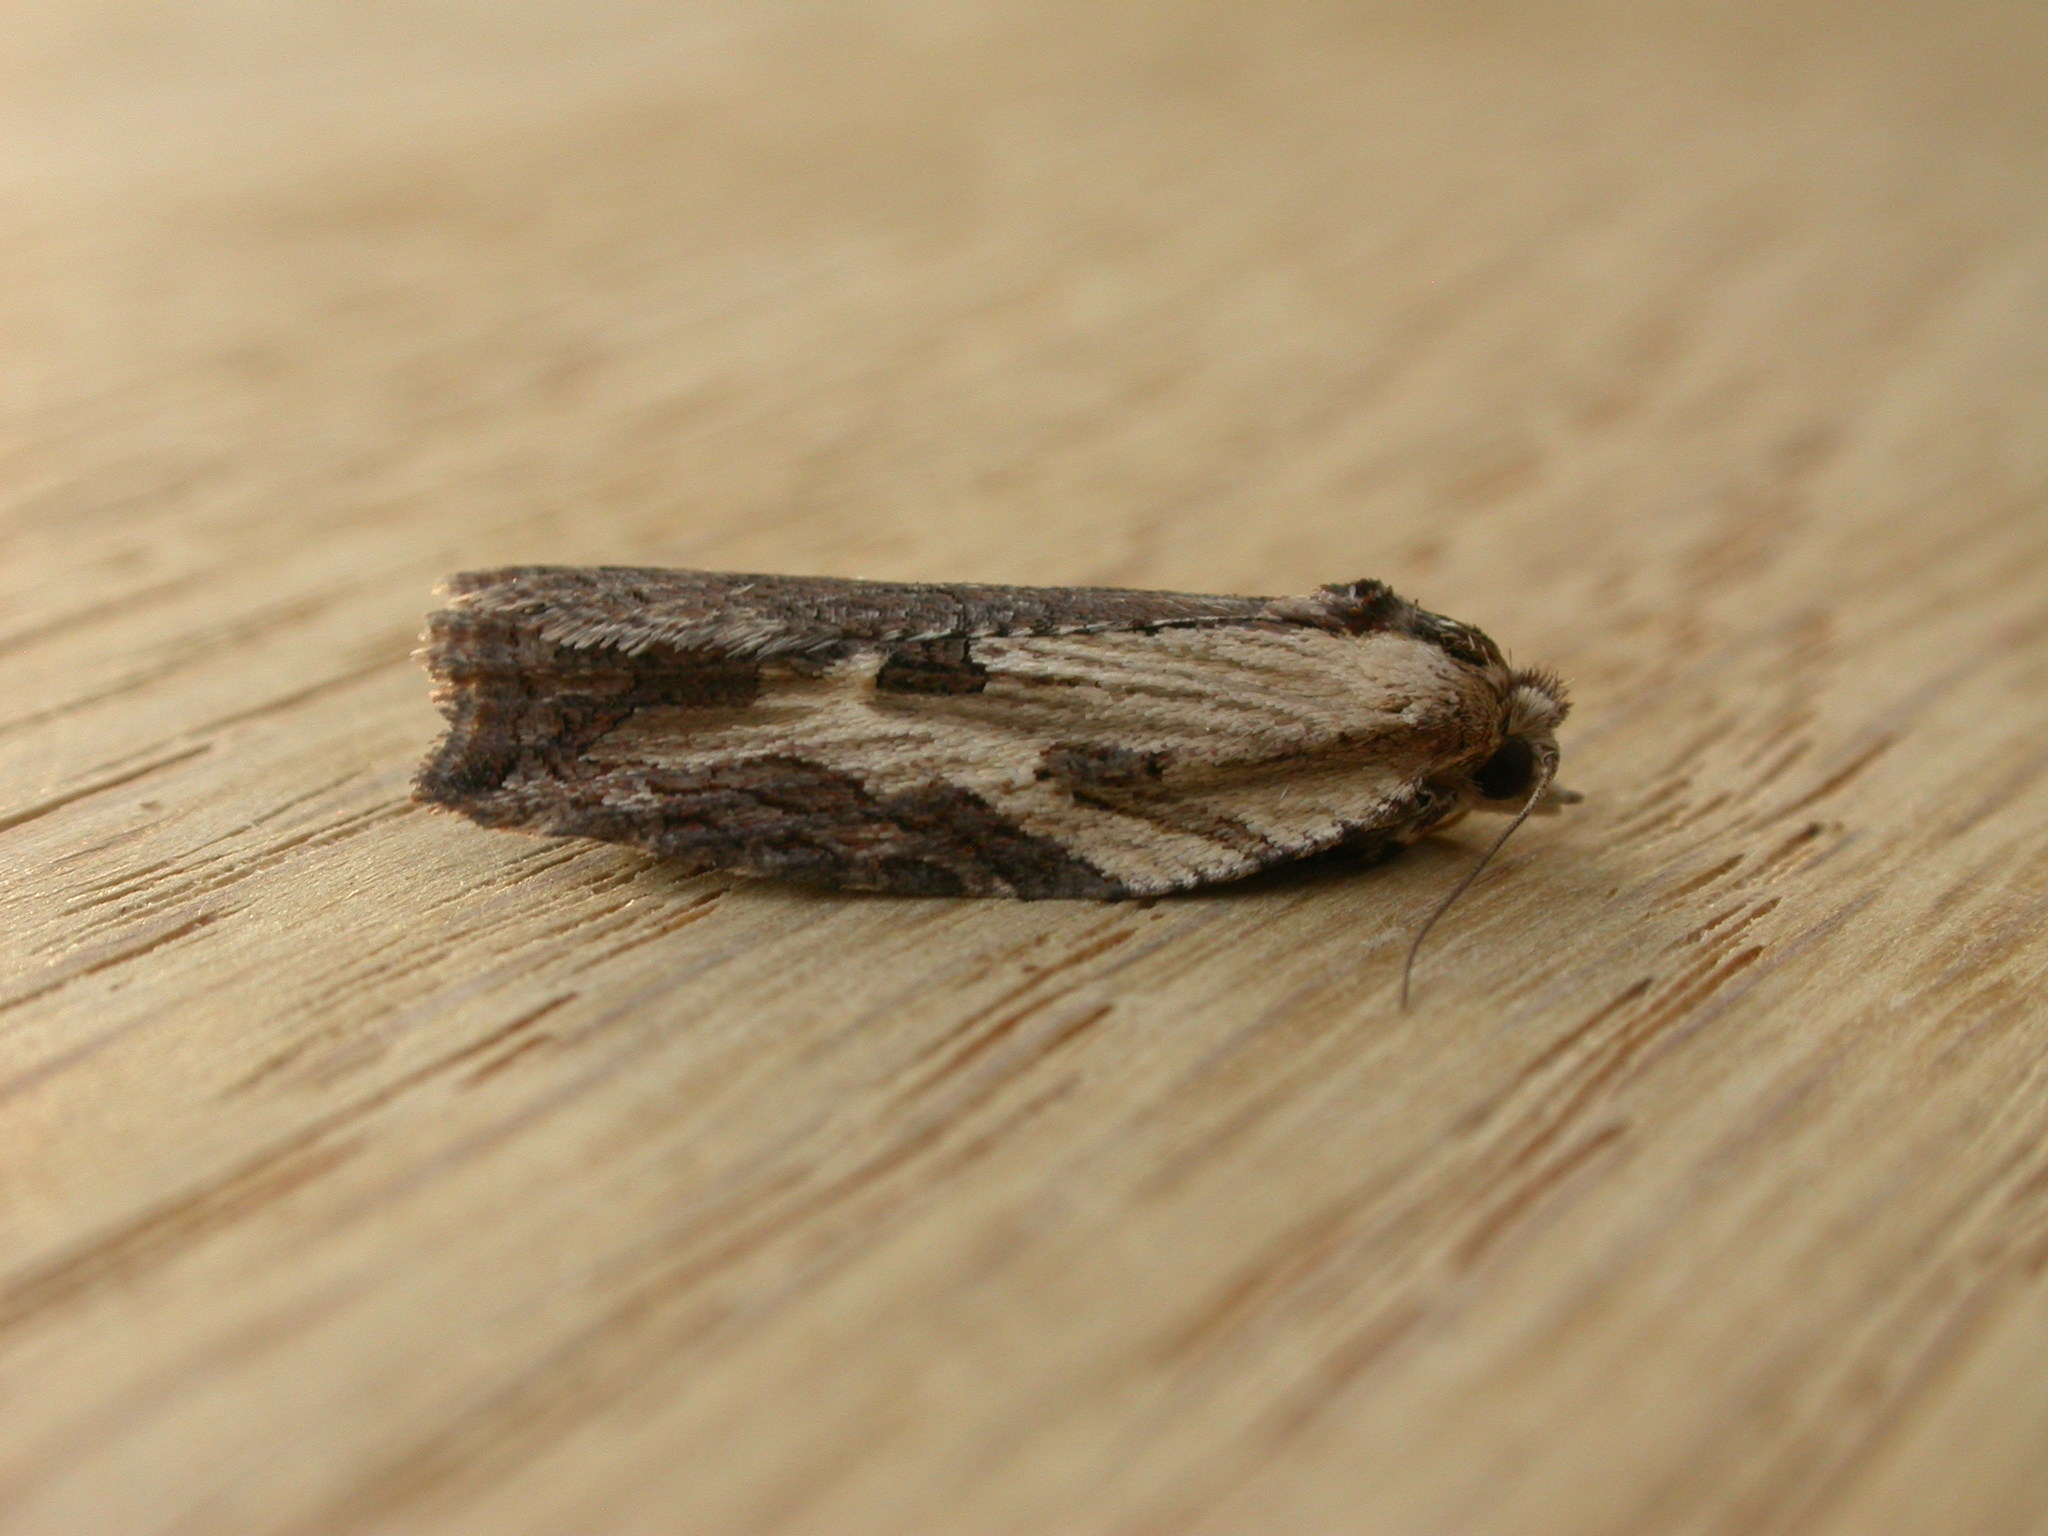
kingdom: Animalia
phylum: Arthropoda
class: Insecta
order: Lepidoptera
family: Tortricidae
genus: Cryptoptila
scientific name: Cryptoptila immersana
